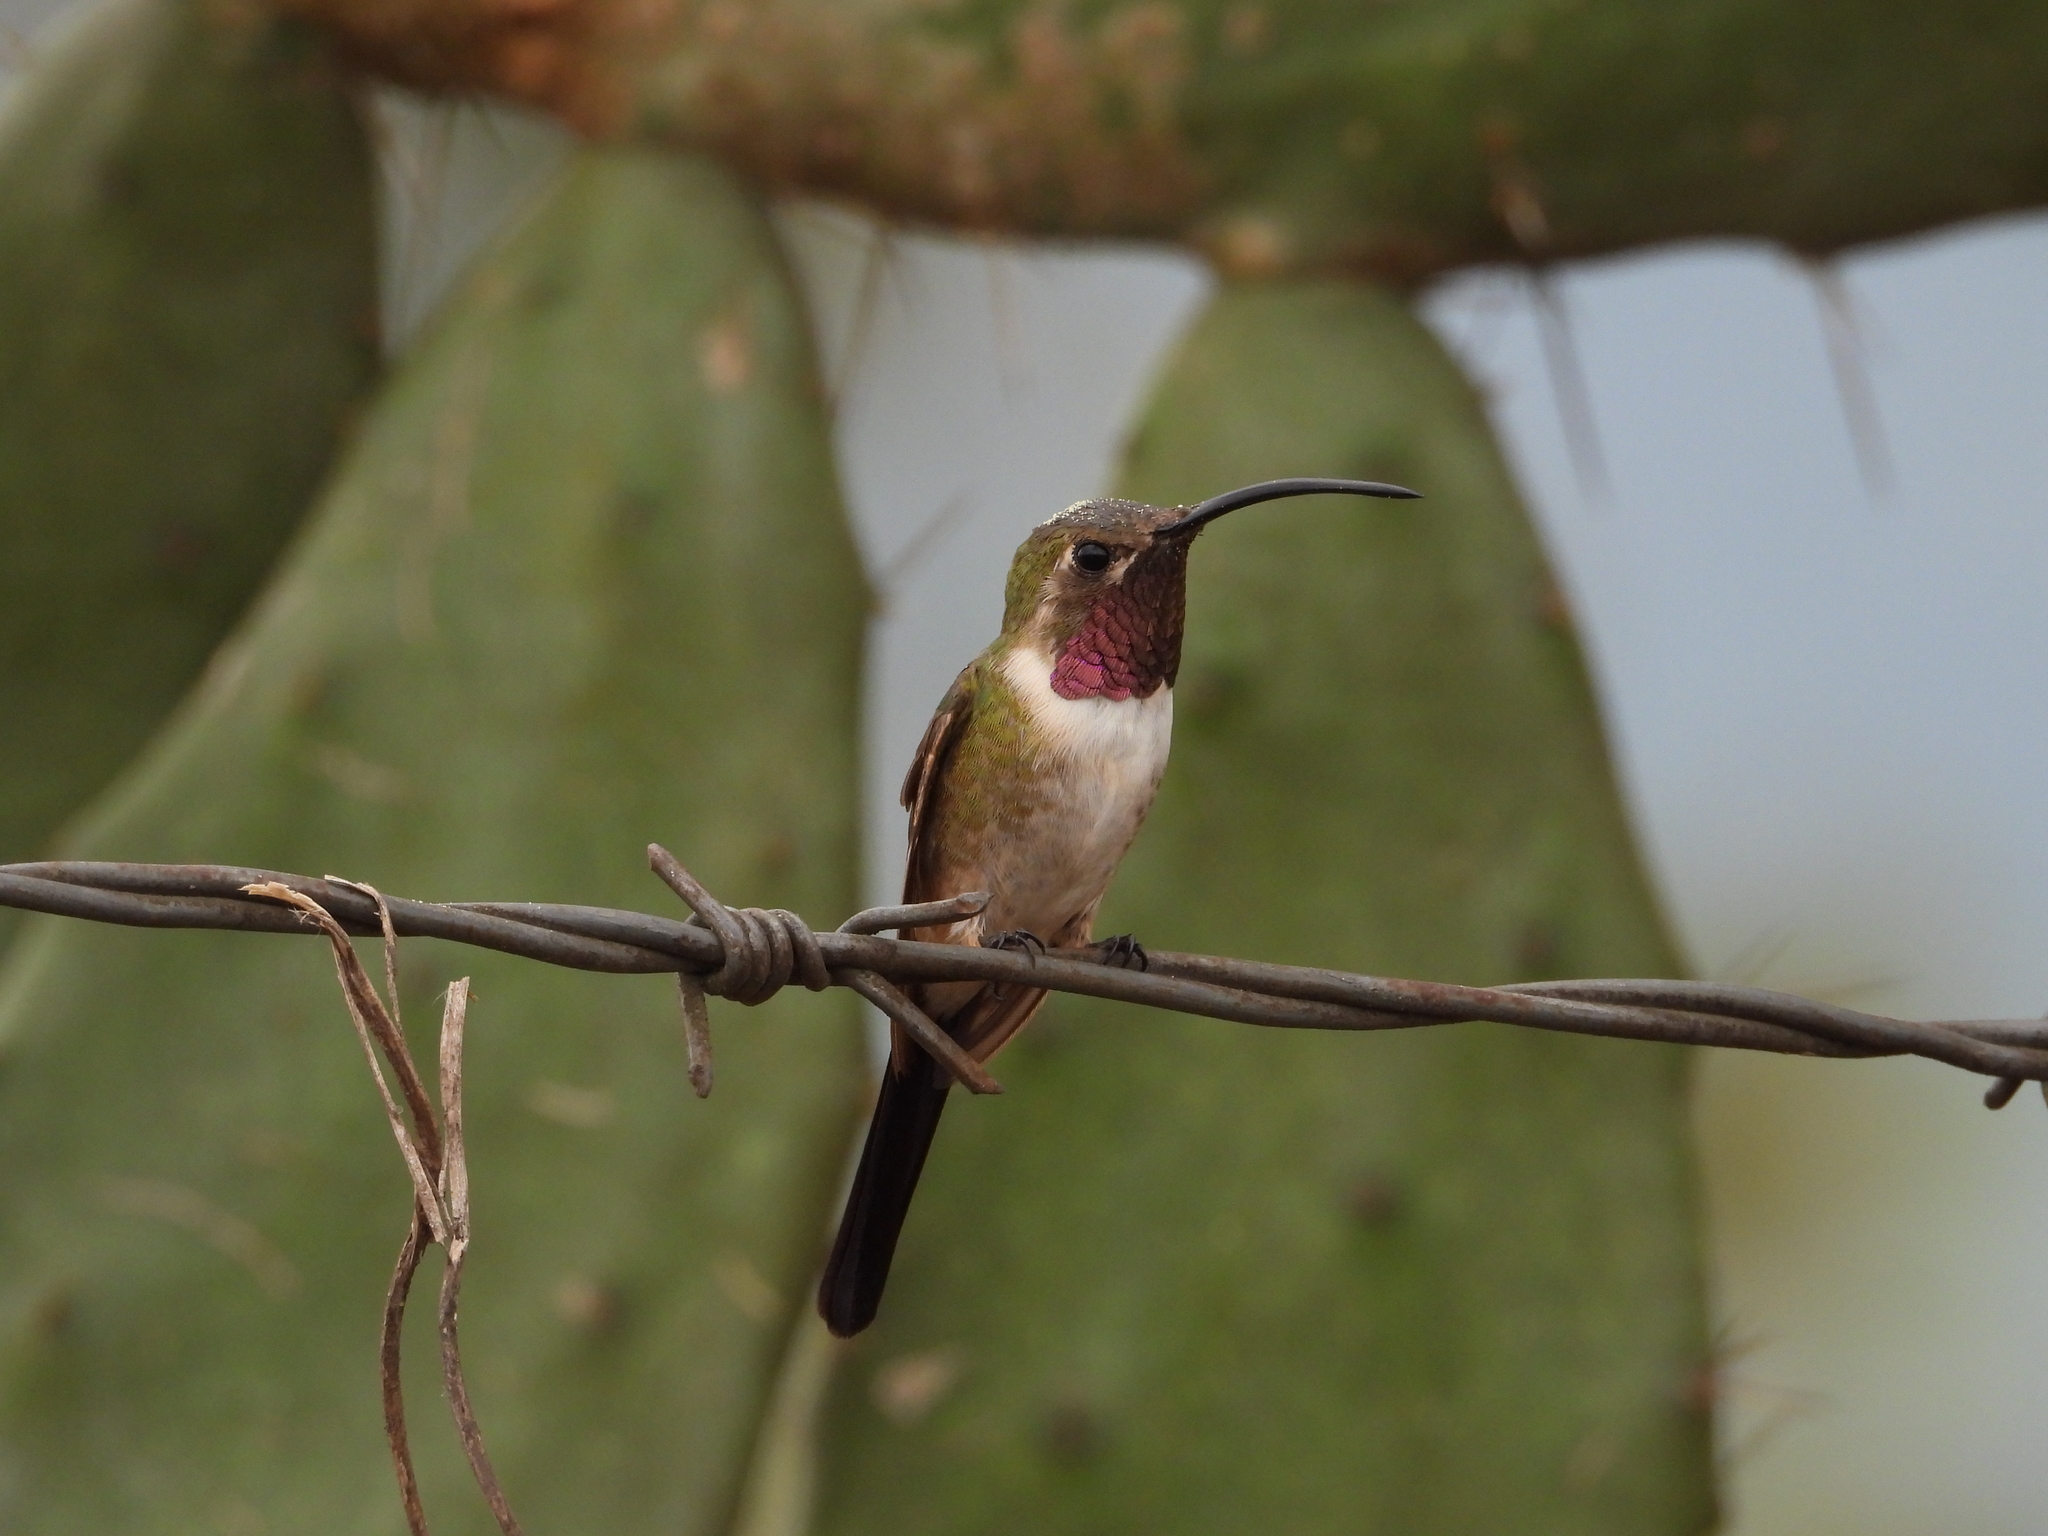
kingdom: Animalia
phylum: Chordata
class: Aves
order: Apodiformes
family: Trochilidae
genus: Doricha
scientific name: Doricha eliza
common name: Mexican sheartail
